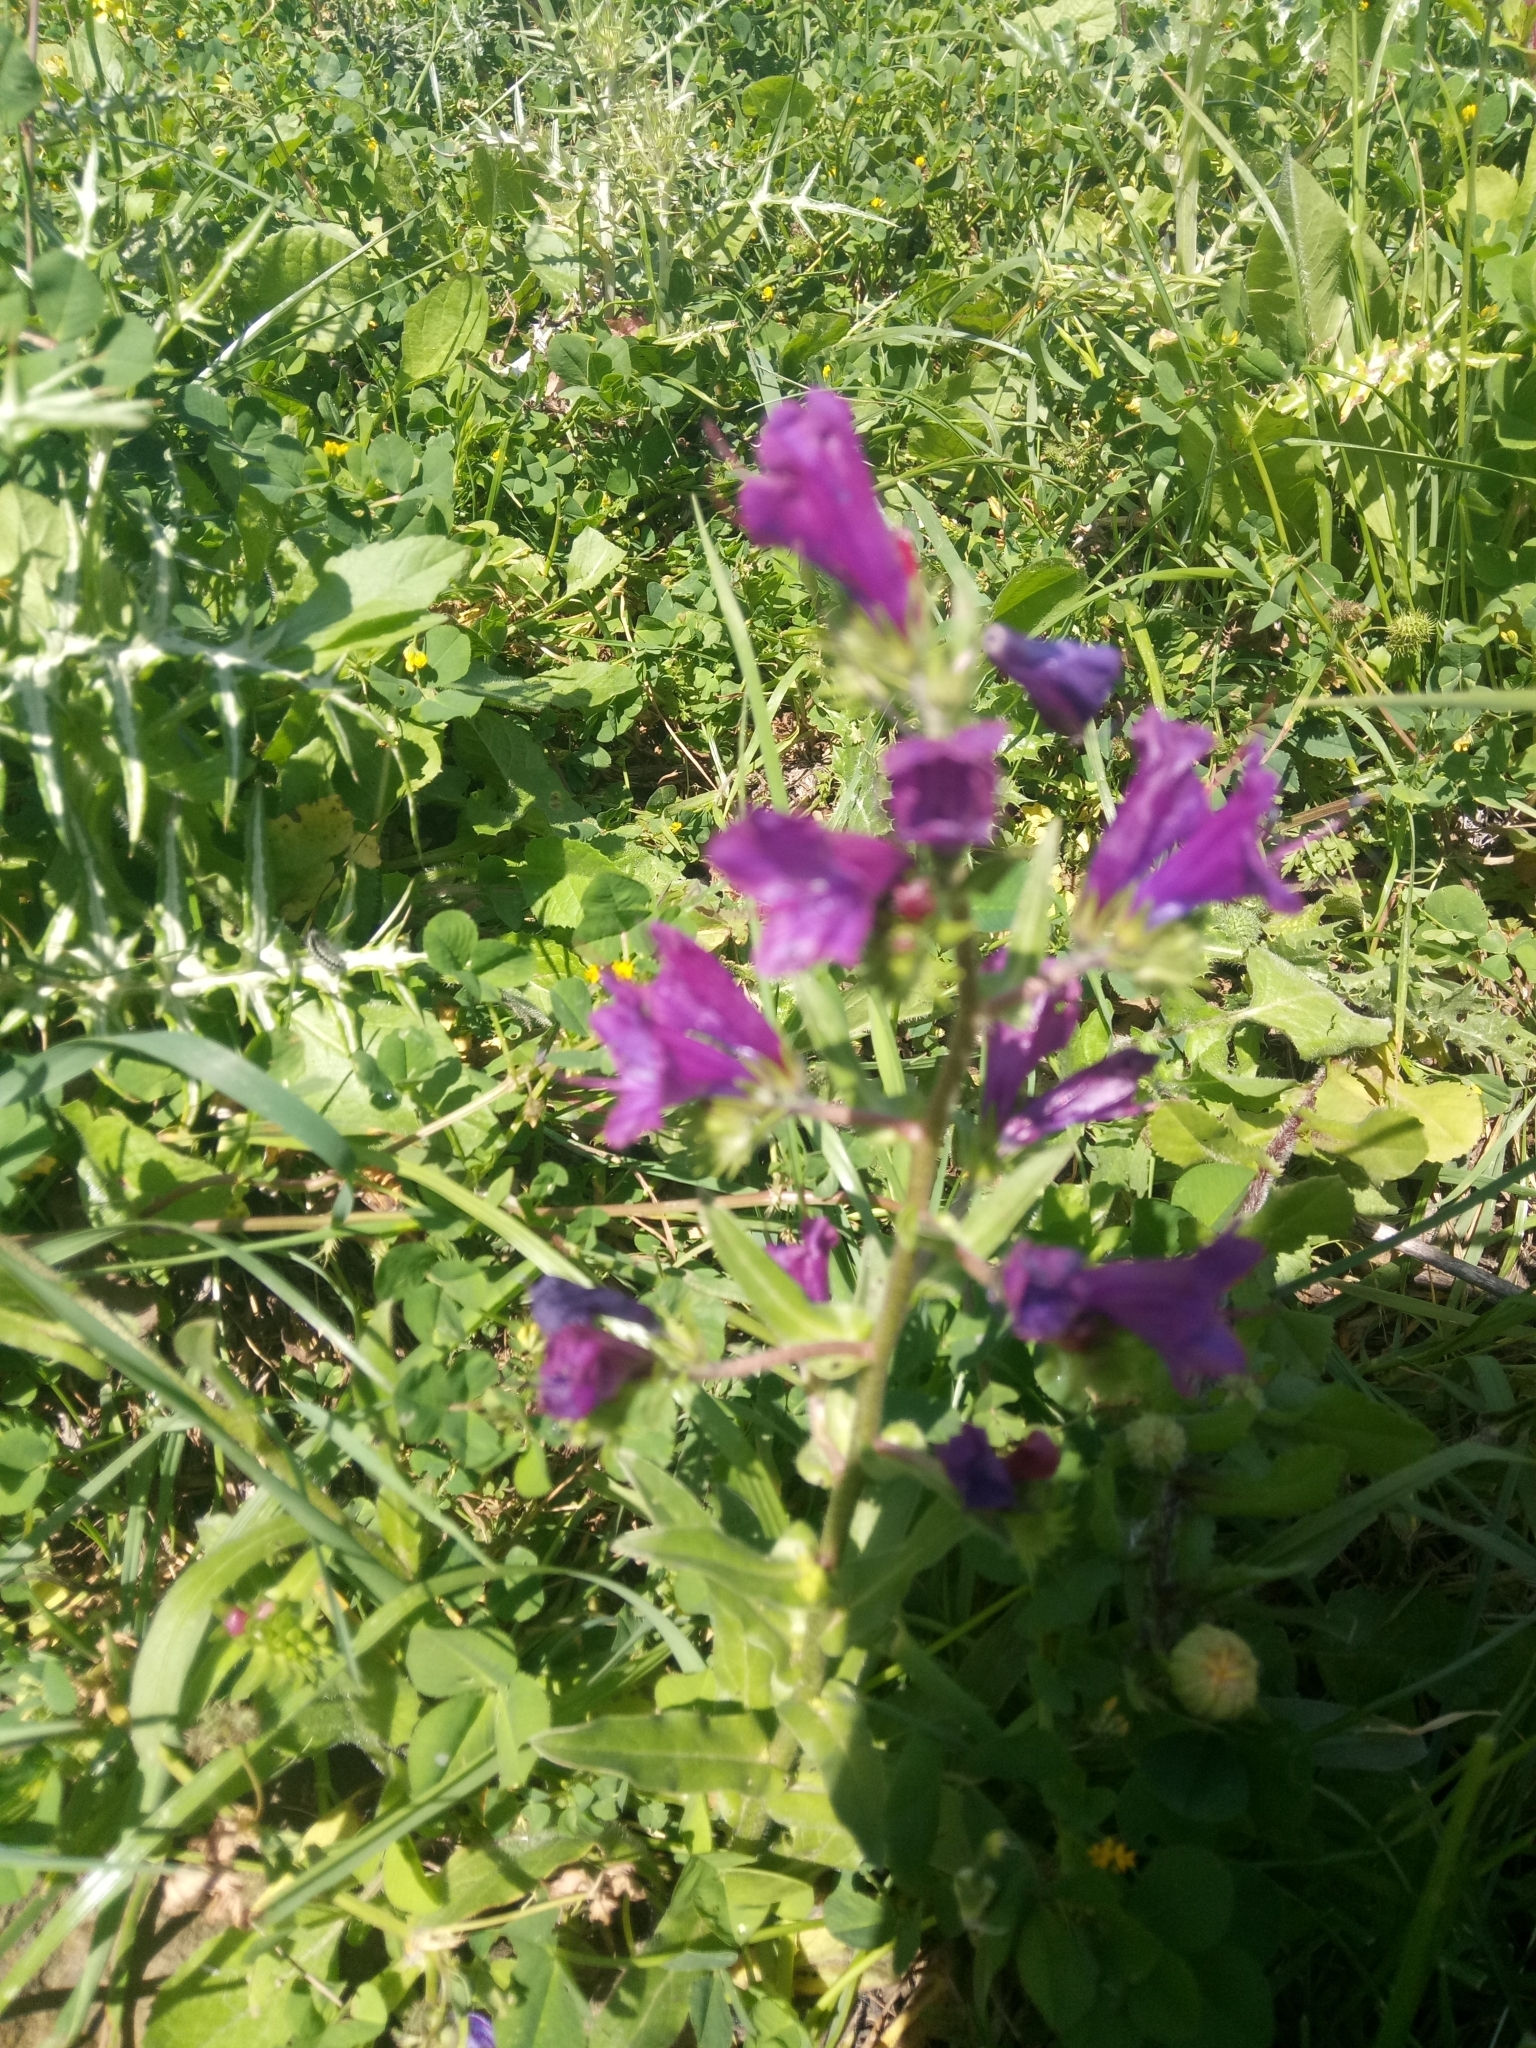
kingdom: Plantae
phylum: Tracheophyta
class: Magnoliopsida
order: Boraginales
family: Boraginaceae
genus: Echium
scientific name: Echium plantagineum
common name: Purple viper's-bugloss
